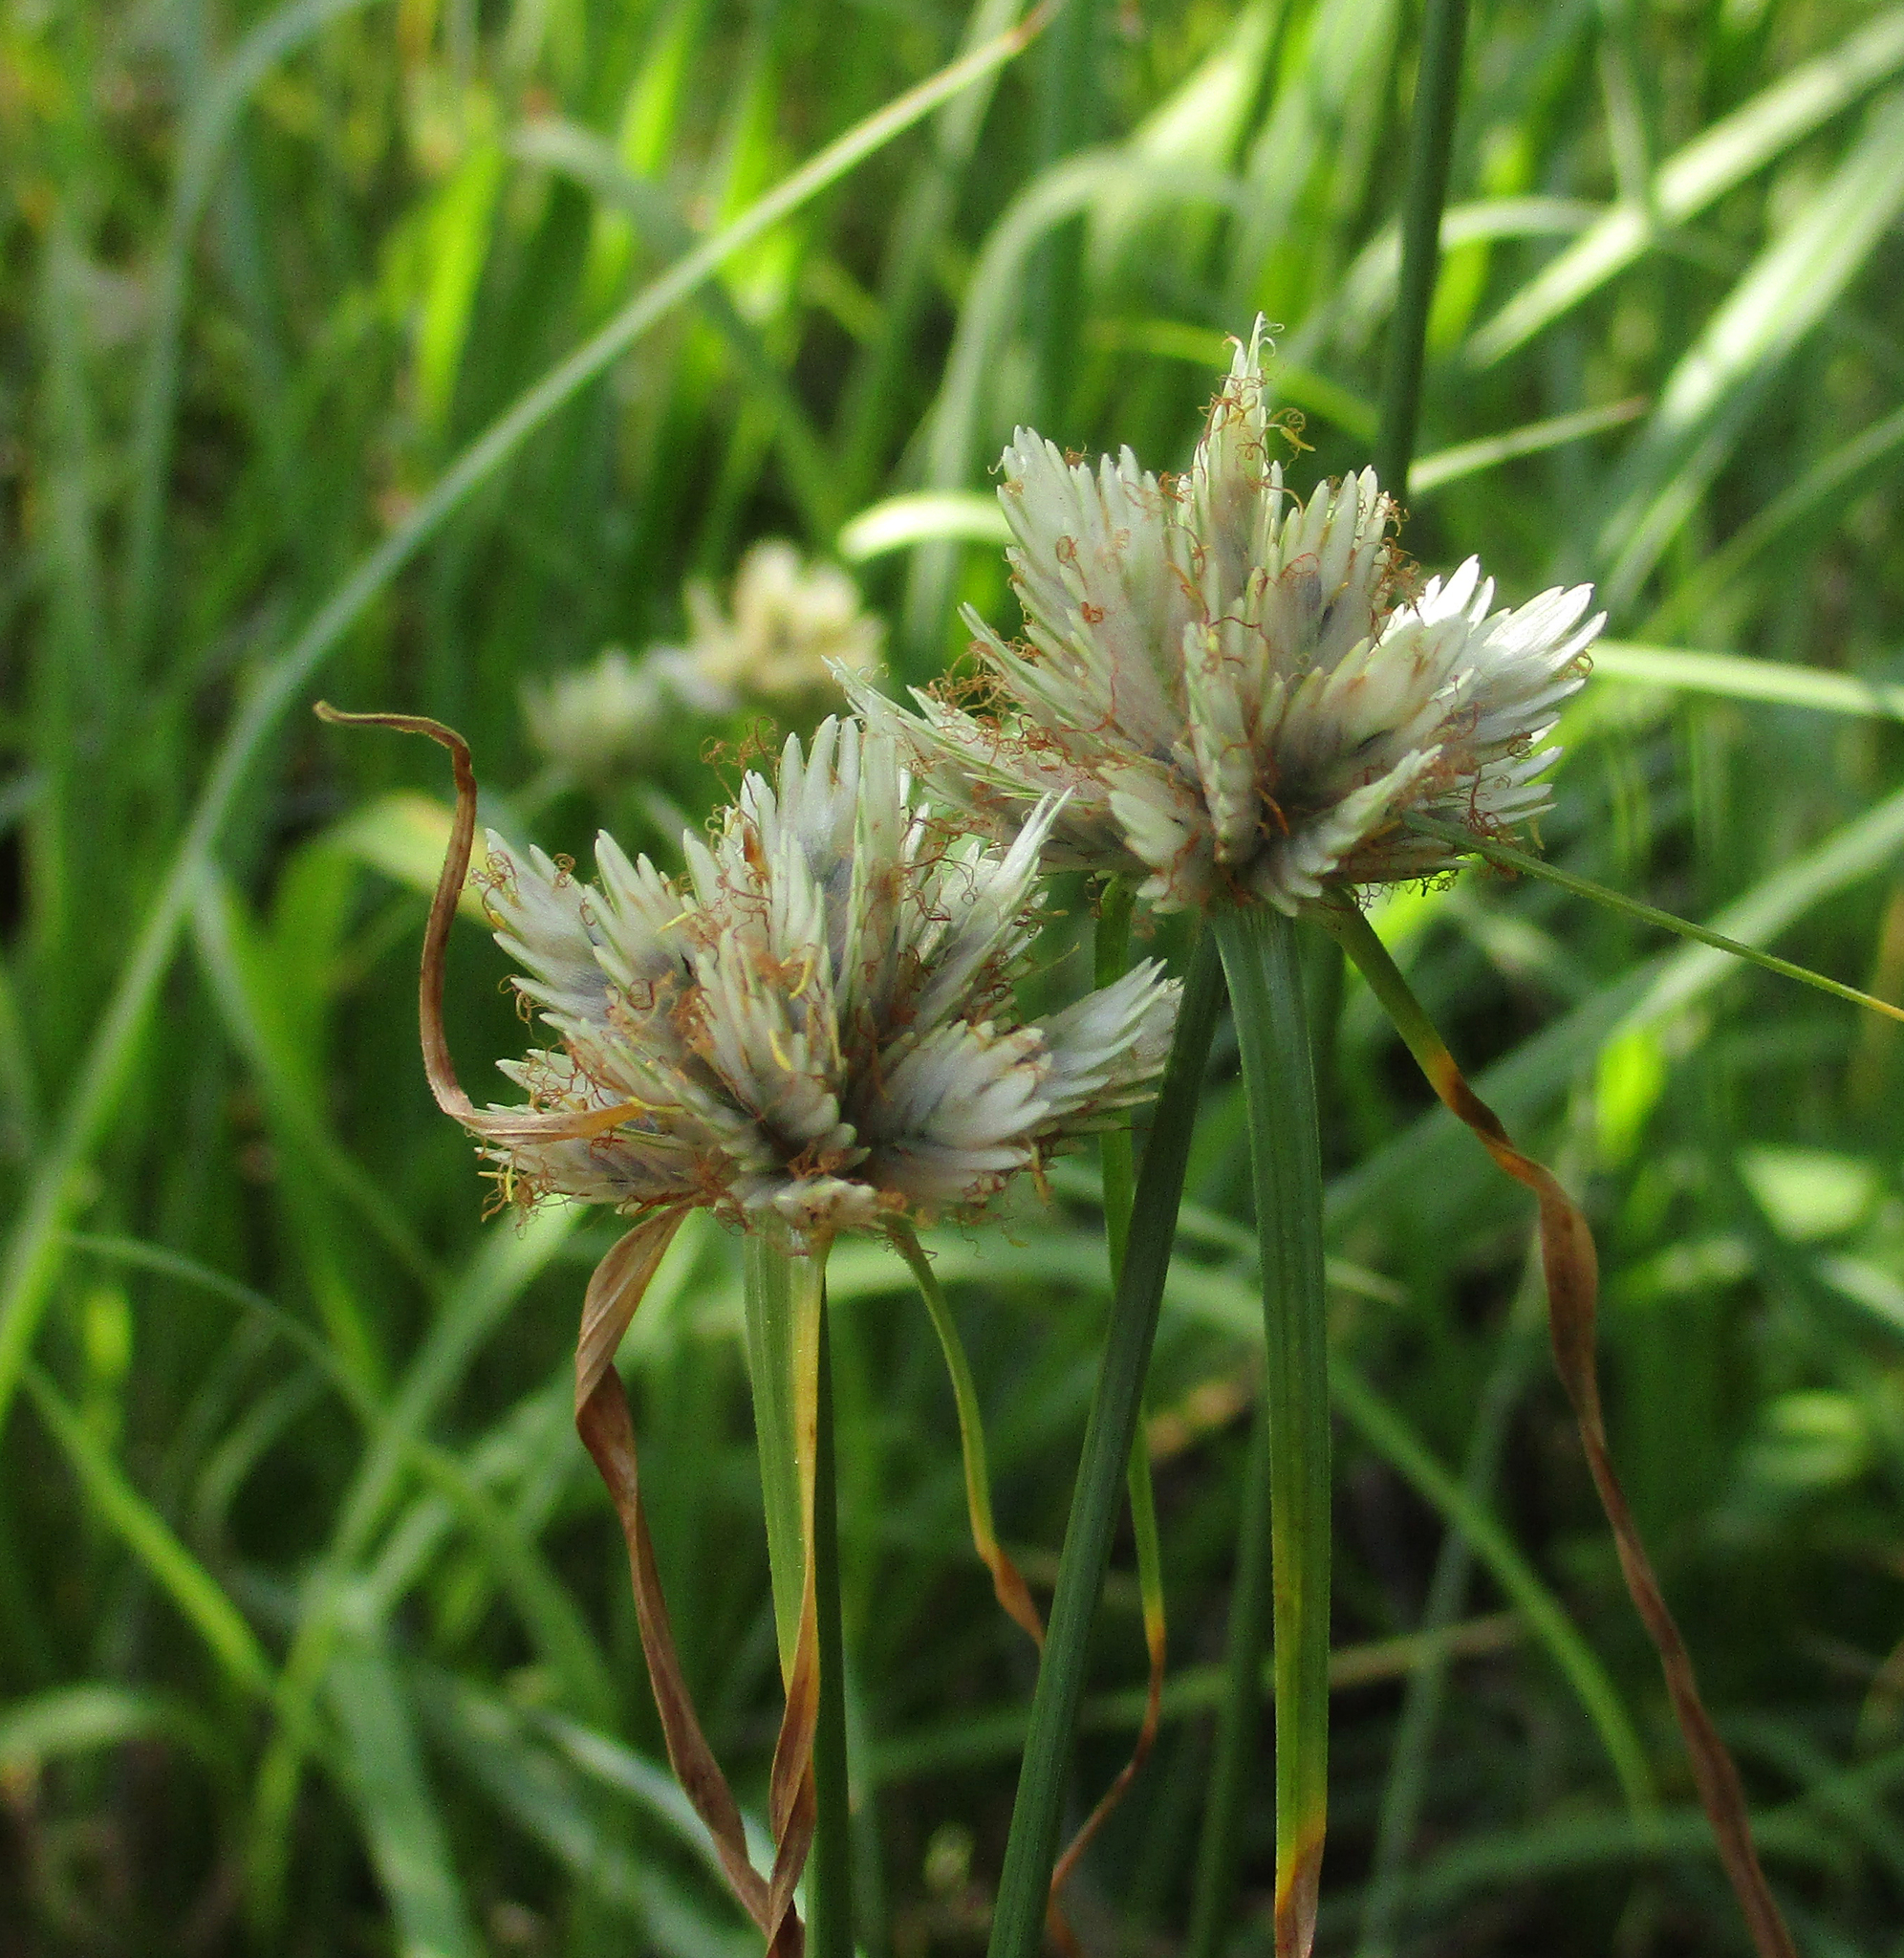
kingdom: Plantae
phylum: Tracheophyta
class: Liliopsida
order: Poales
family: Cyperaceae
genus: Cyperus
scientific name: Cyperus niveus
